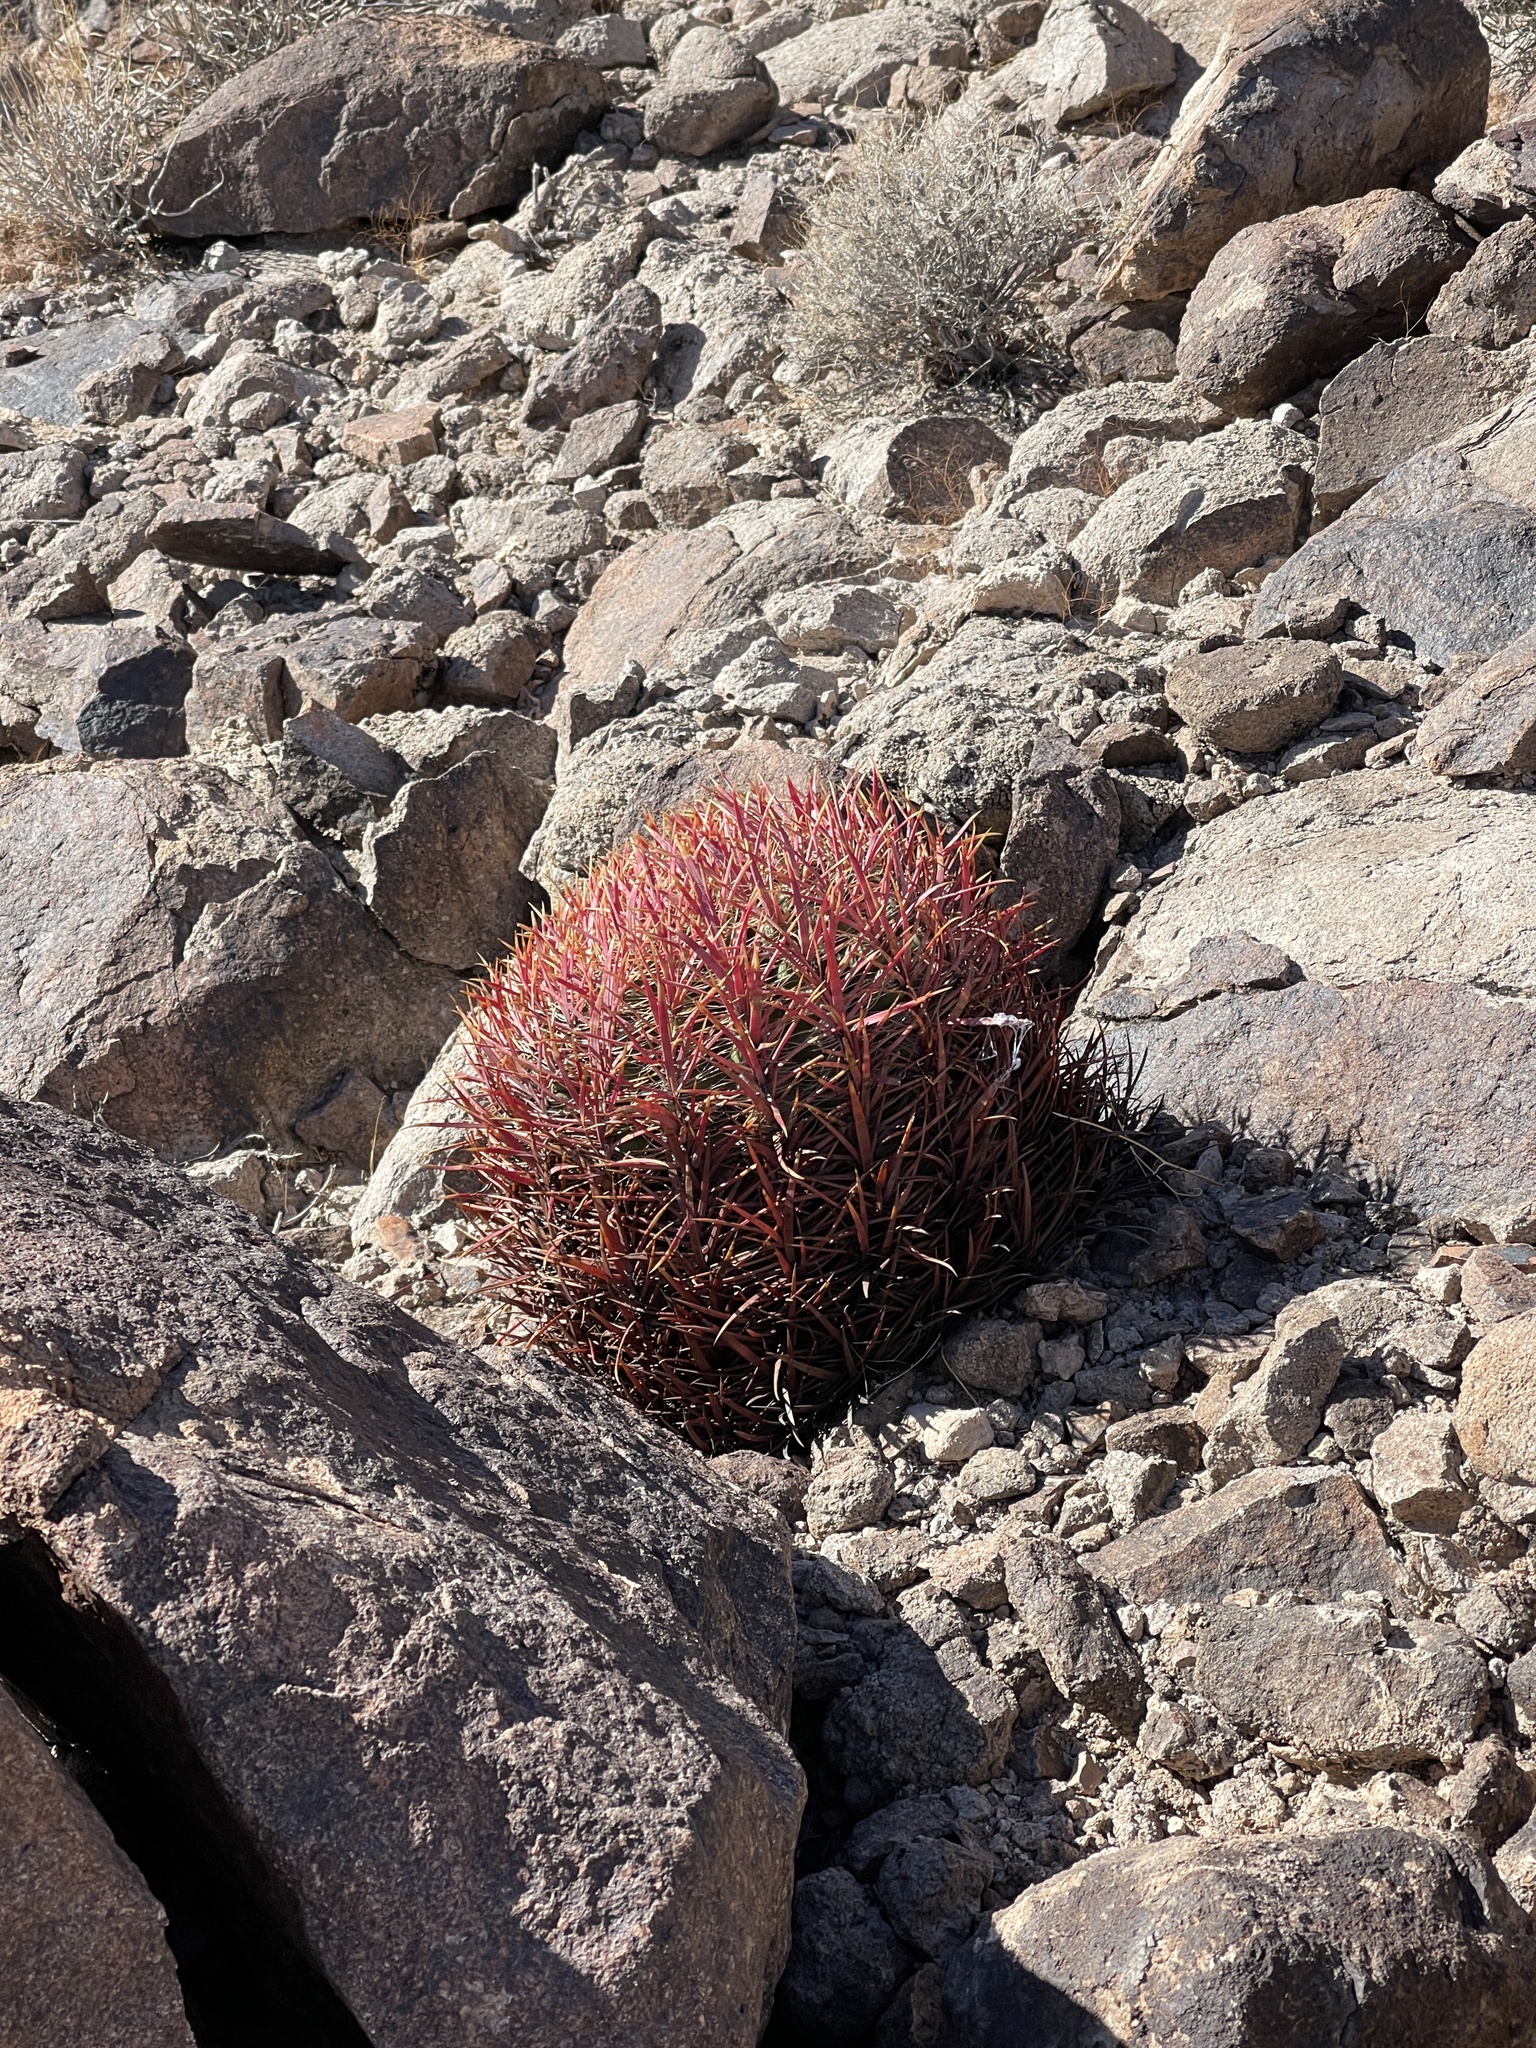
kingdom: Plantae
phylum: Tracheophyta
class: Magnoliopsida
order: Caryophyllales
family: Cactaceae
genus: Ferocactus
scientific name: Ferocactus cylindraceus
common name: California barrel cactus
